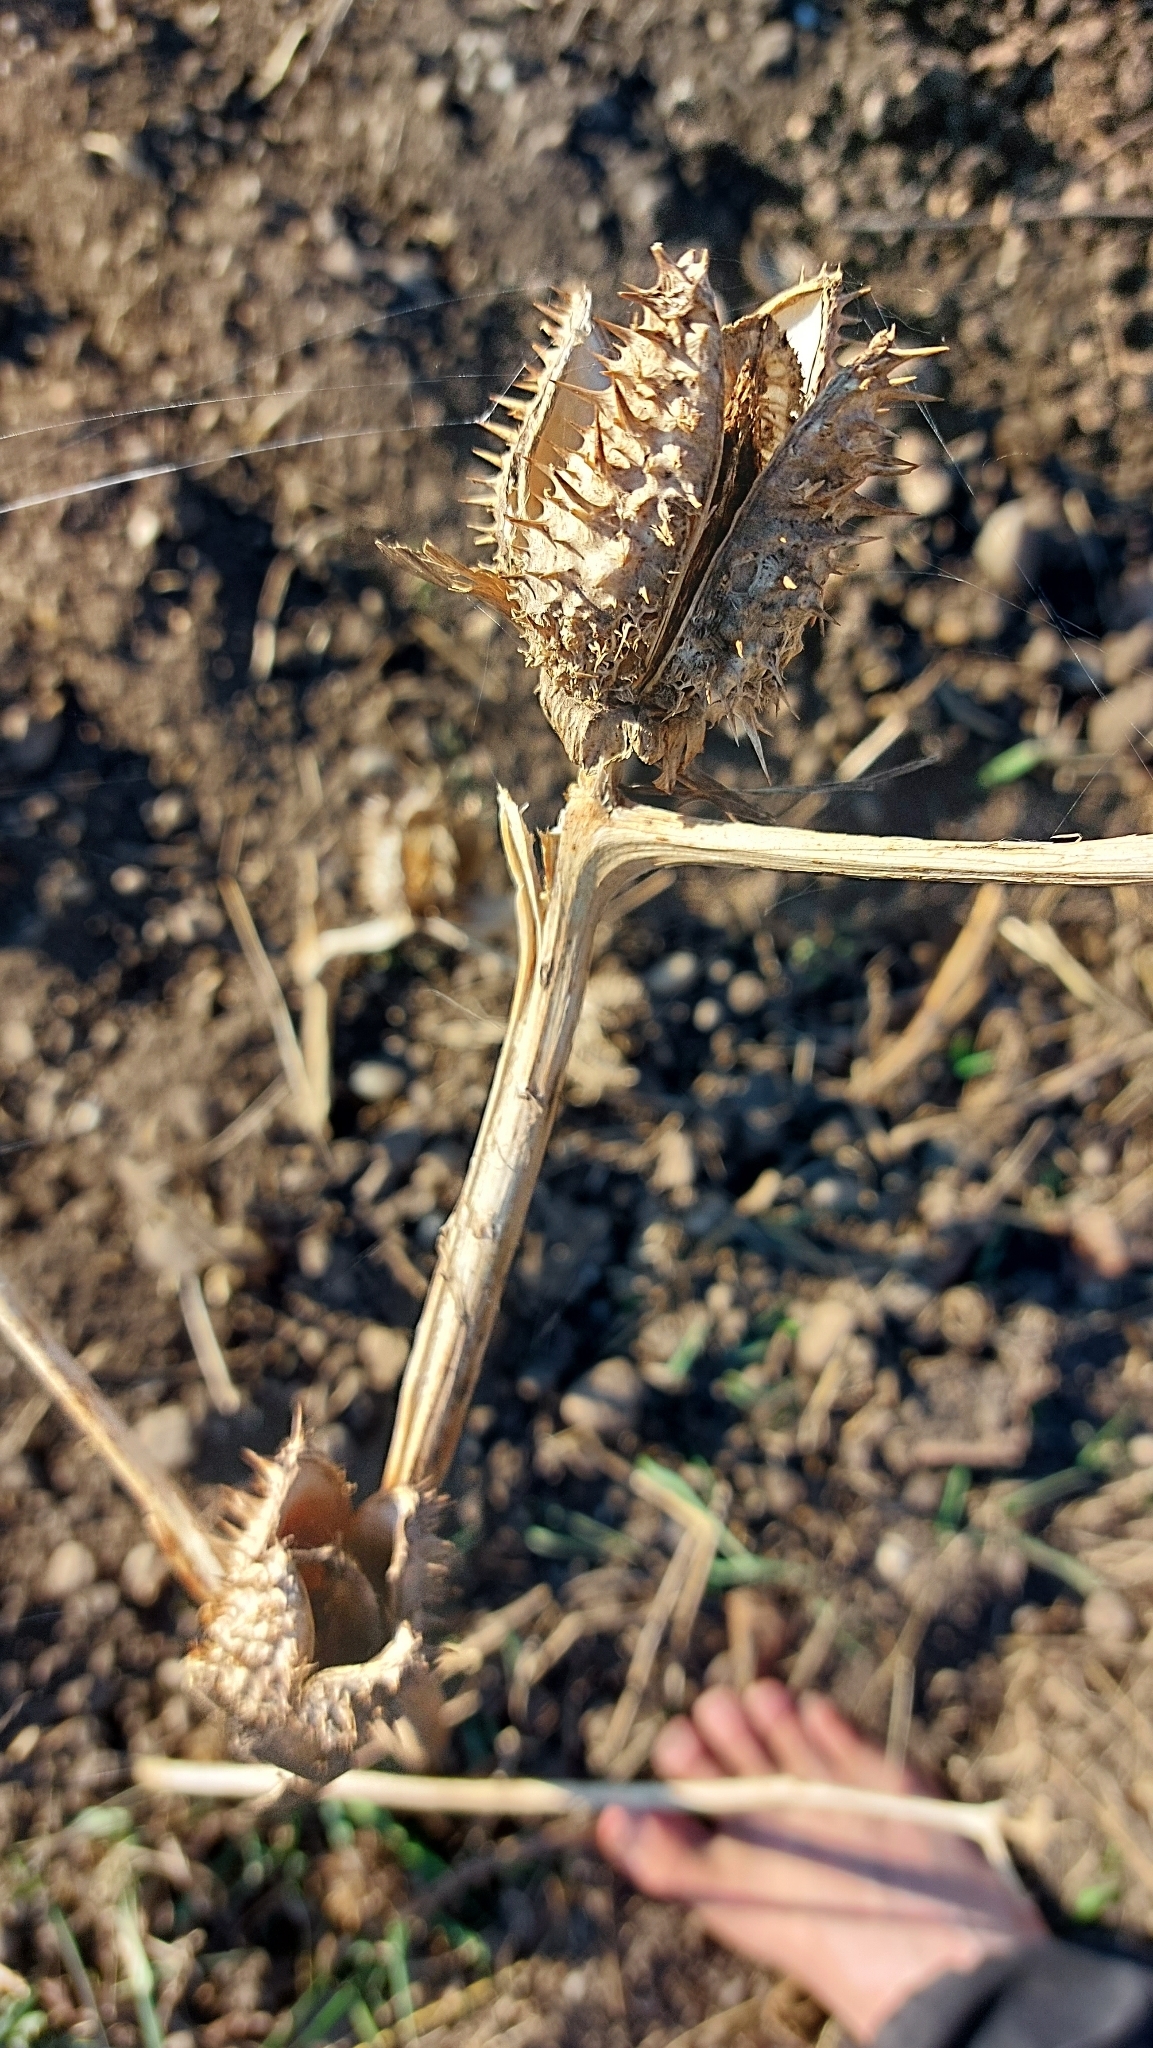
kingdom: Plantae
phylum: Tracheophyta
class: Magnoliopsida
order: Solanales
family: Solanaceae
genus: Datura
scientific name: Datura stramonium
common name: Thorn-apple
